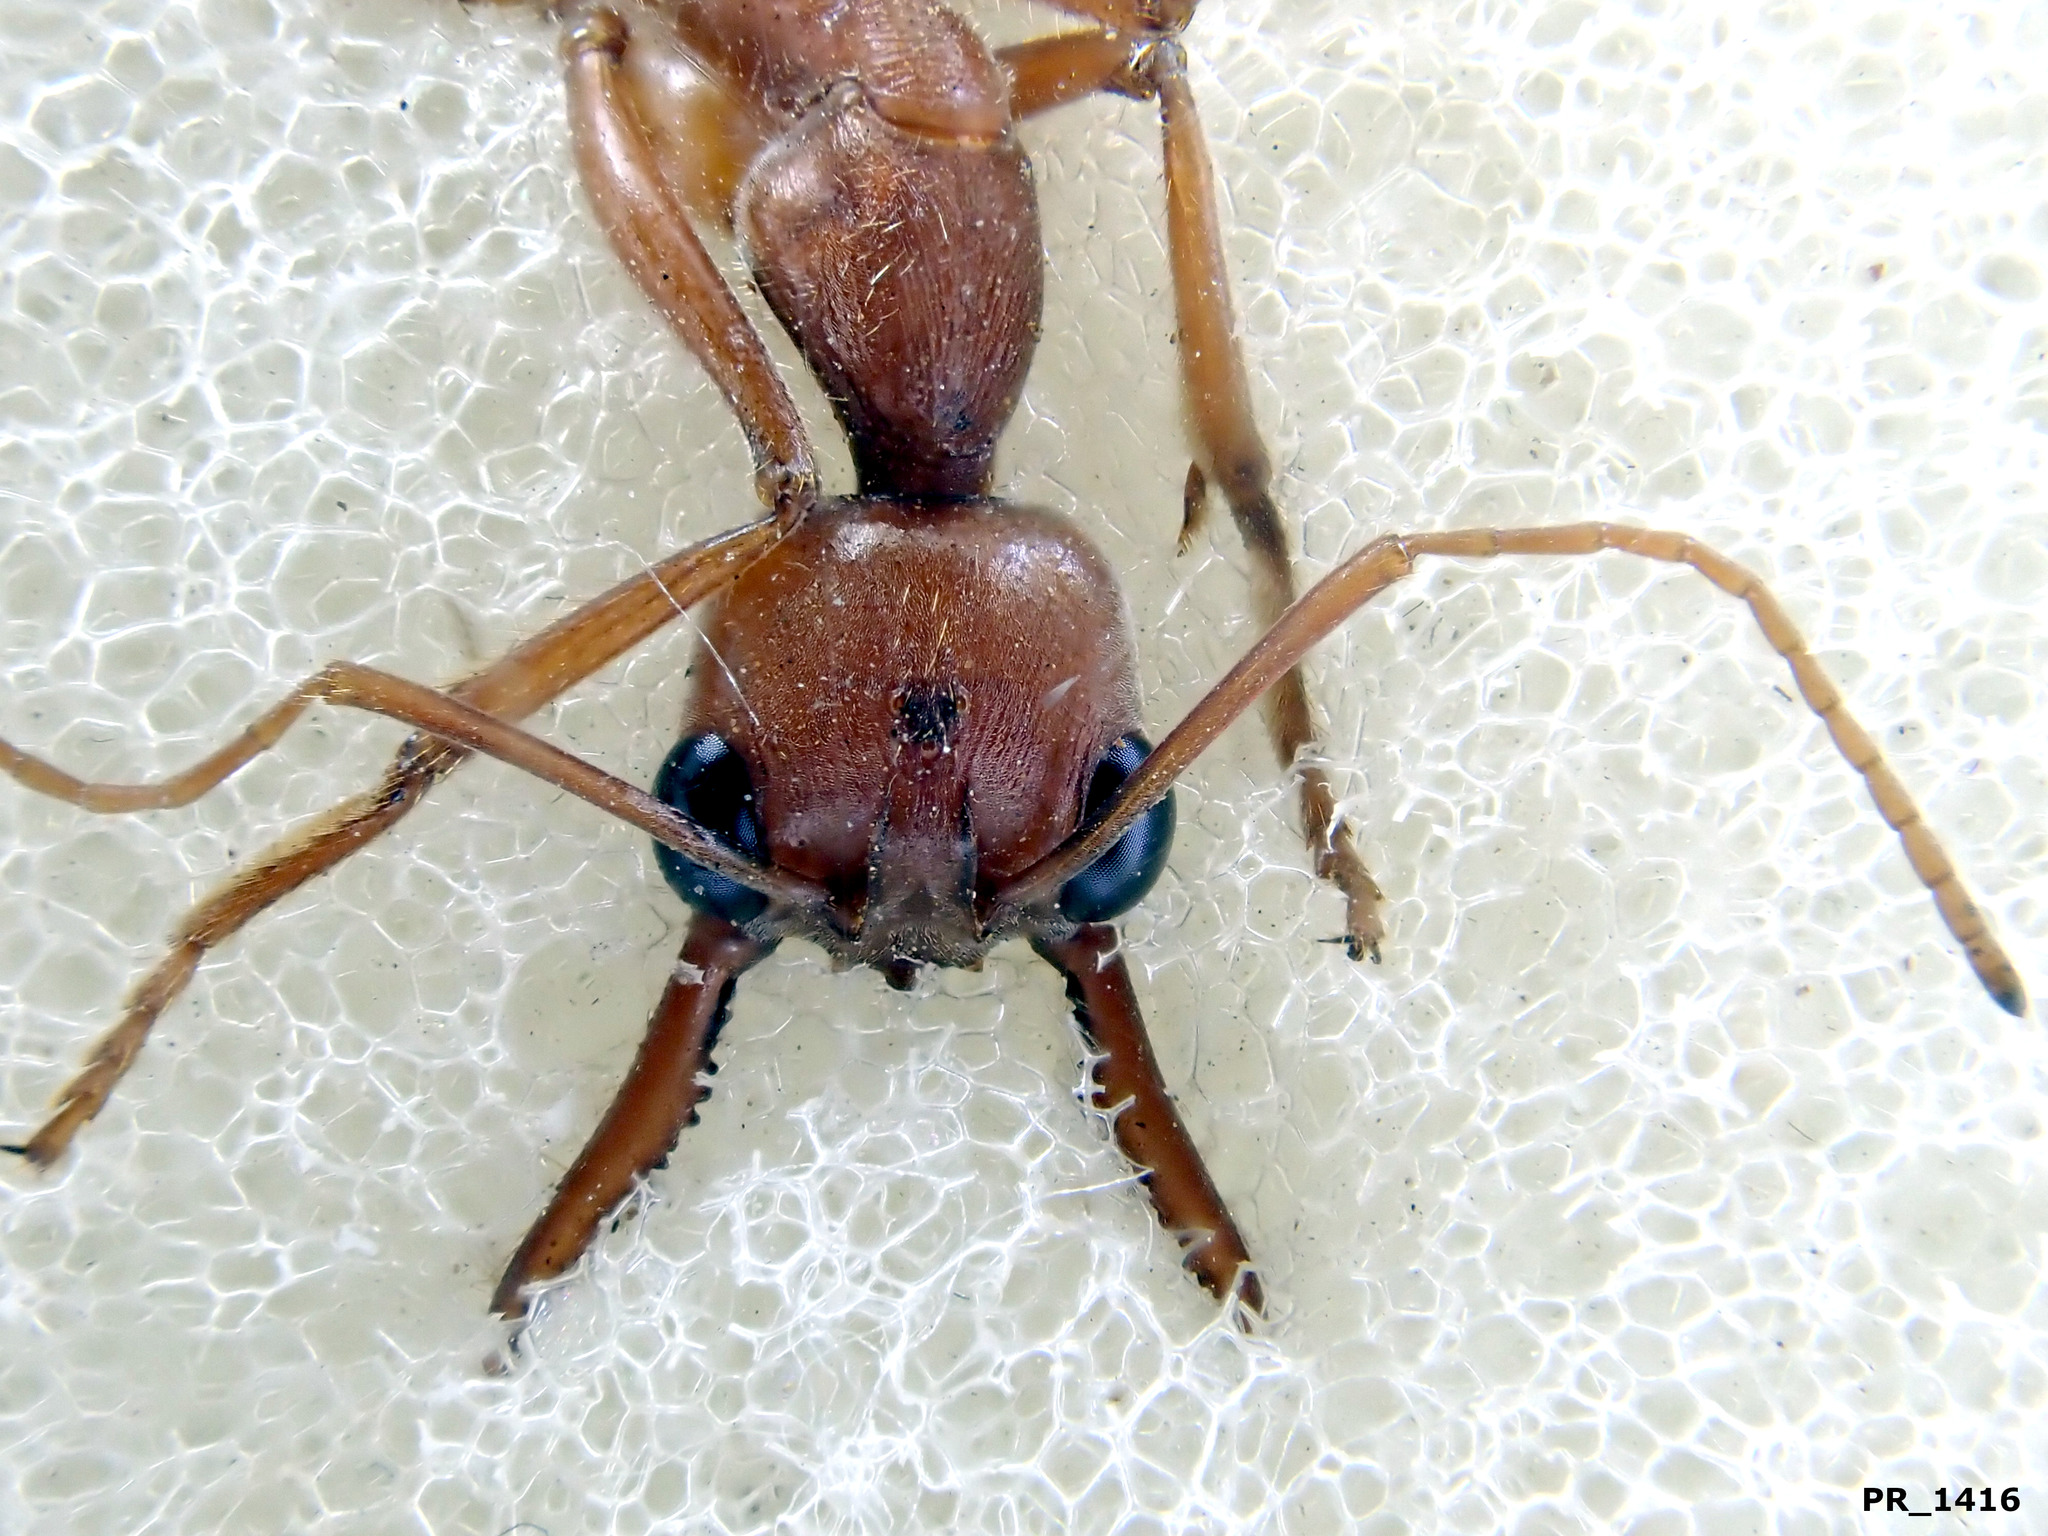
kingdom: Animalia
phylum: Arthropoda
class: Insecta
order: Hymenoptera
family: Formicidae
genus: Myrmecia
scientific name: Myrmecia brevinoda
